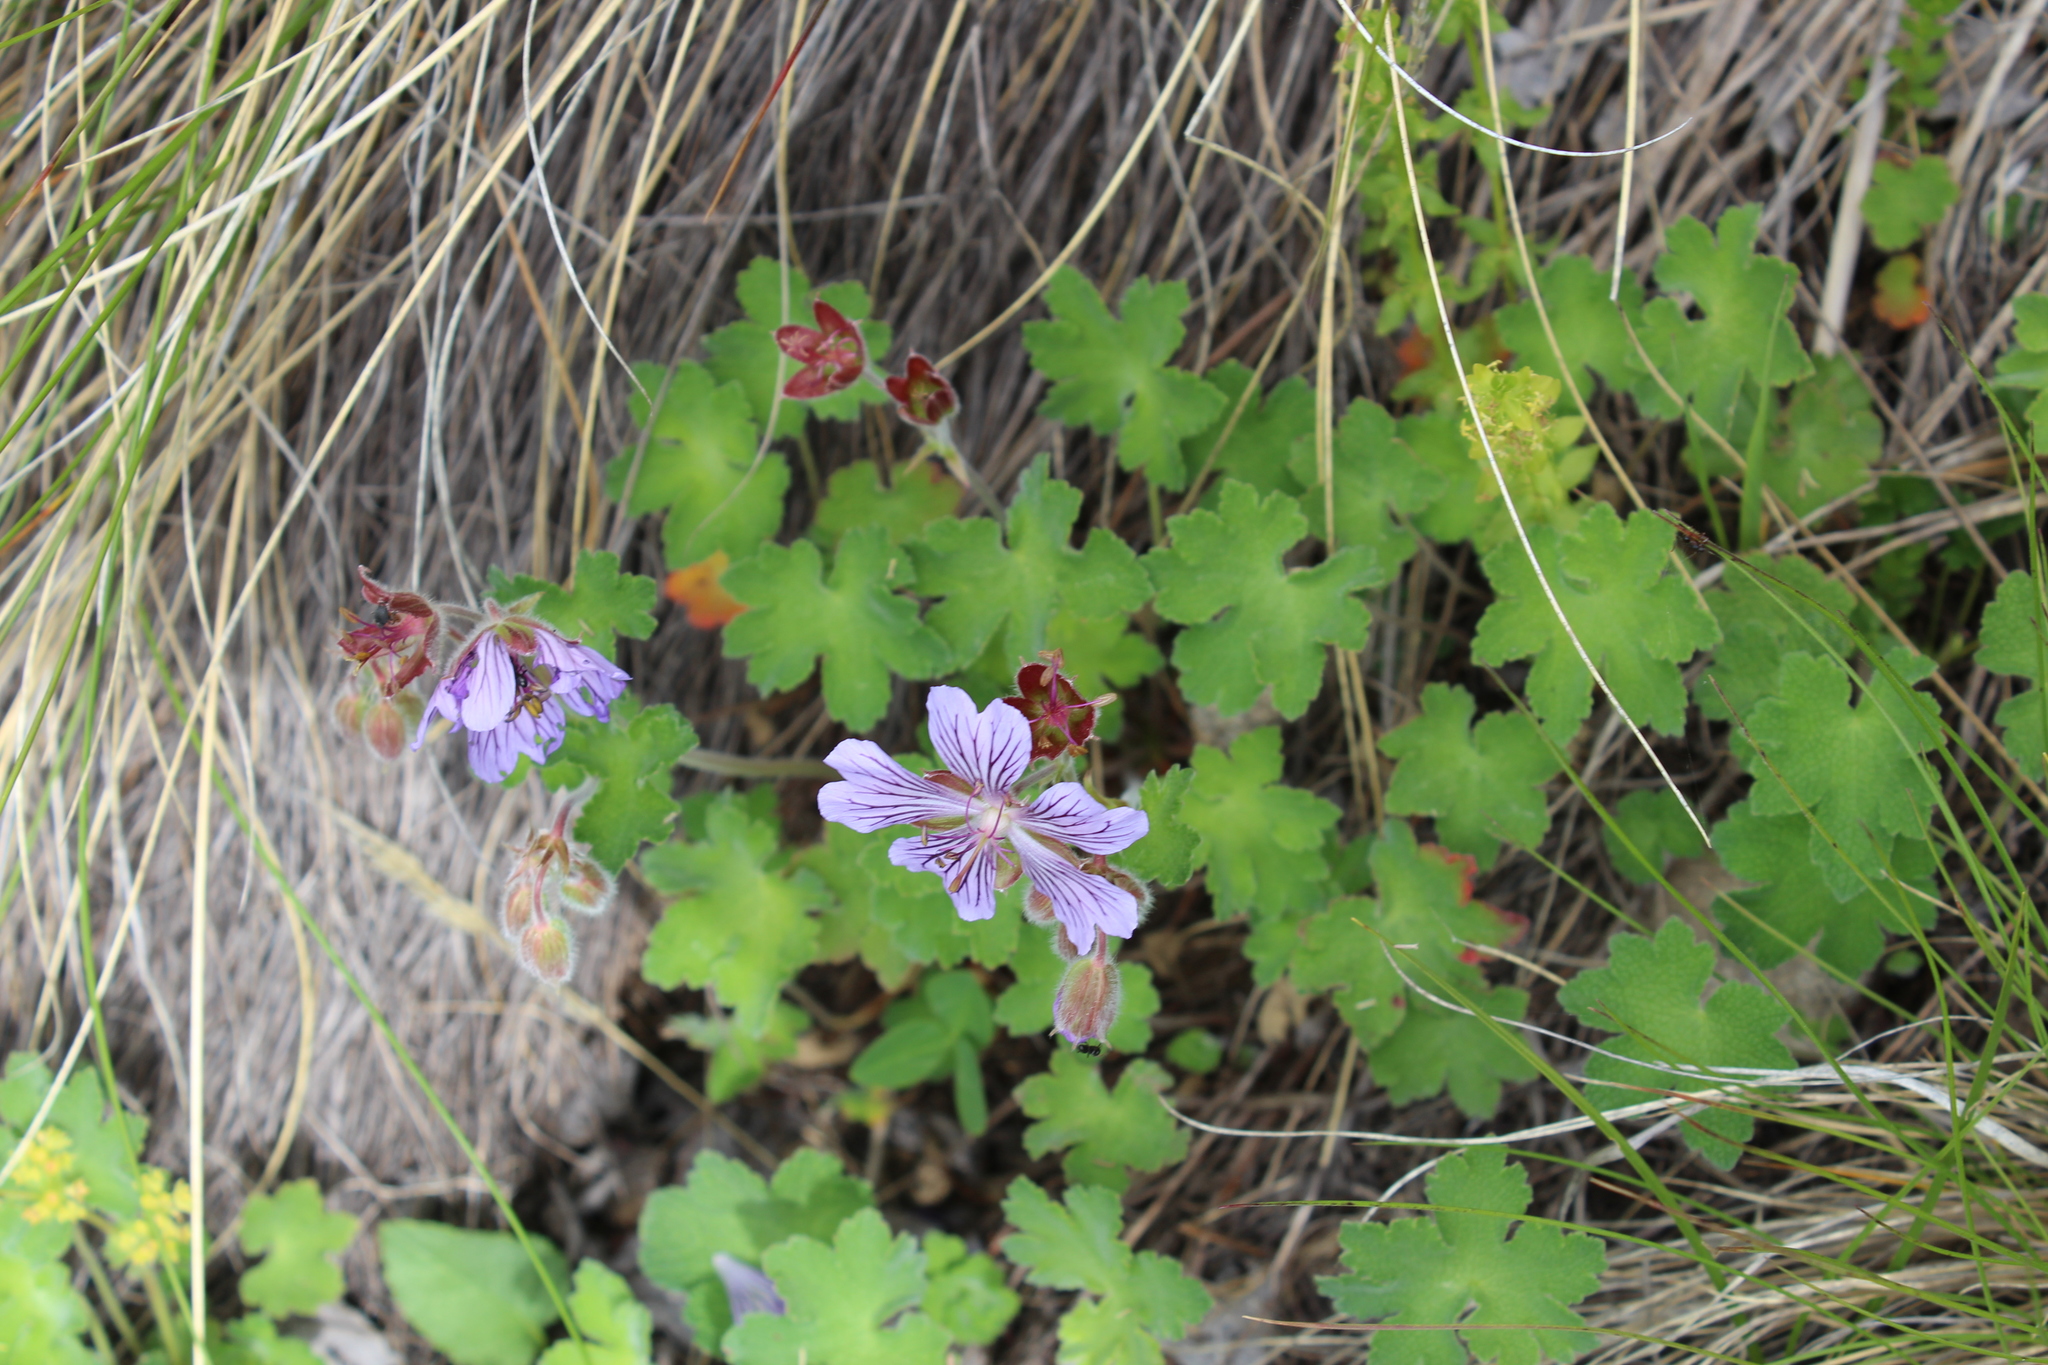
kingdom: Plantae
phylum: Tracheophyta
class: Magnoliopsida
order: Geraniales
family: Geraniaceae
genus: Geranium
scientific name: Geranium renardii
